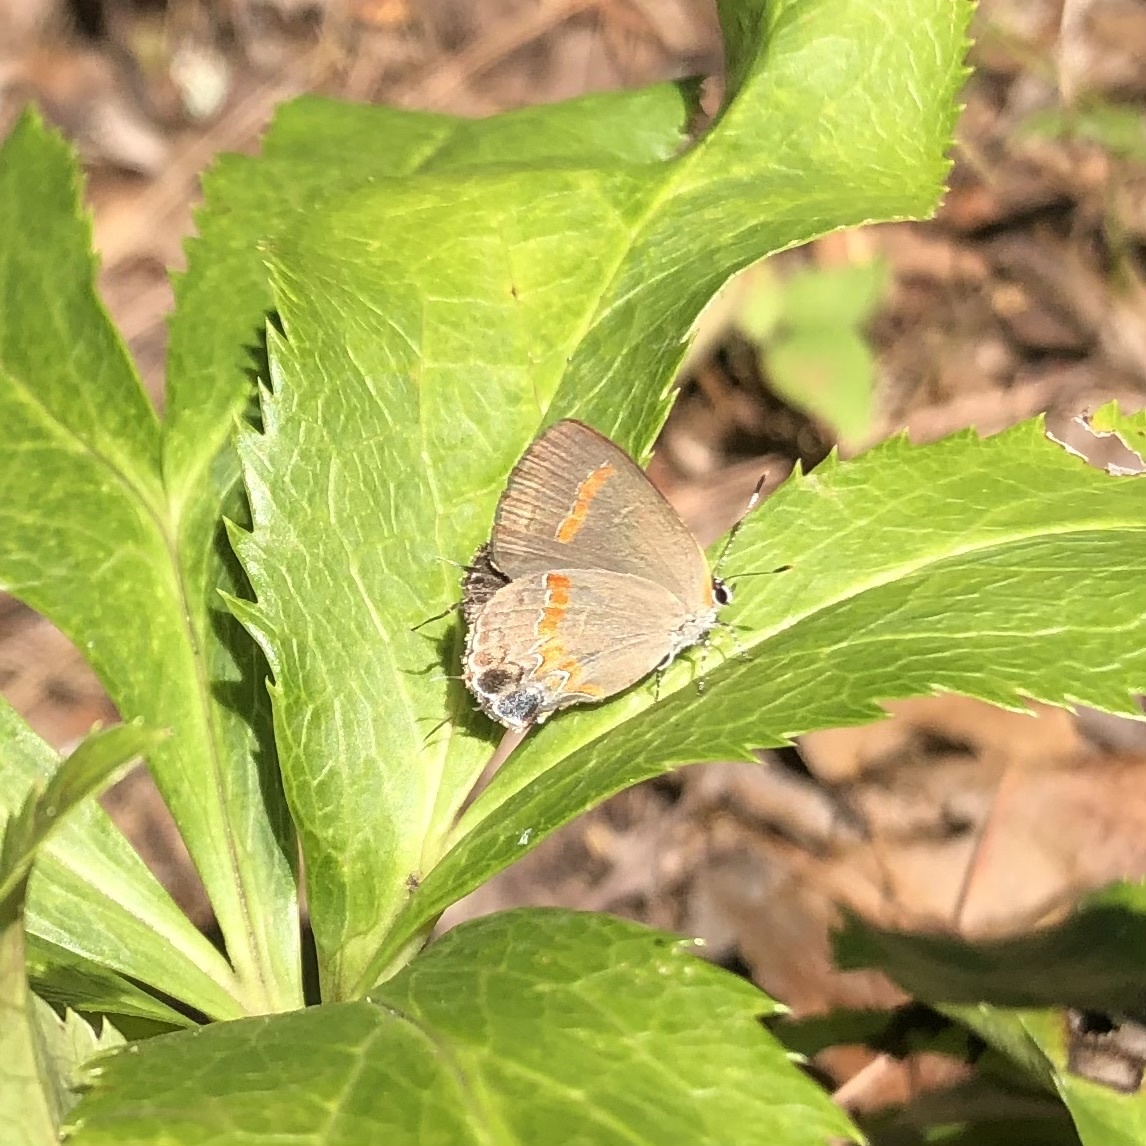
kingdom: Animalia
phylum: Arthropoda
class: Insecta
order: Lepidoptera
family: Lycaenidae
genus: Calycopis
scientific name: Calycopis cecrops
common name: Red-banded hairstreak
